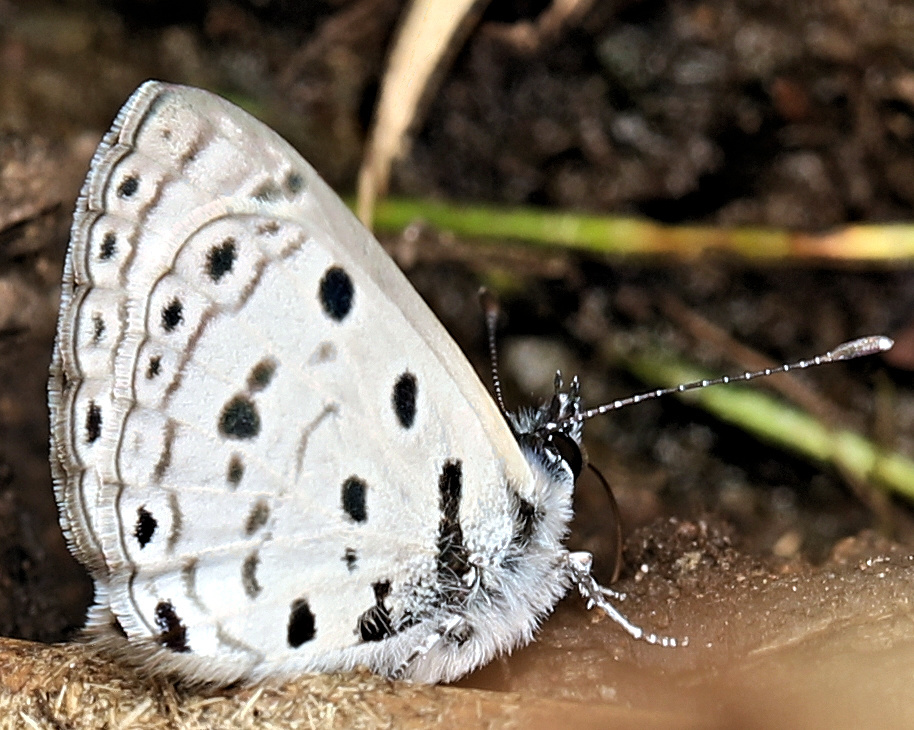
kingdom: Animalia
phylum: Arthropoda
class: Insecta
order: Lepidoptera
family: Lycaenidae
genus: Azanus
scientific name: Azanus moriqua
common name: Thorn-tree babul blue
